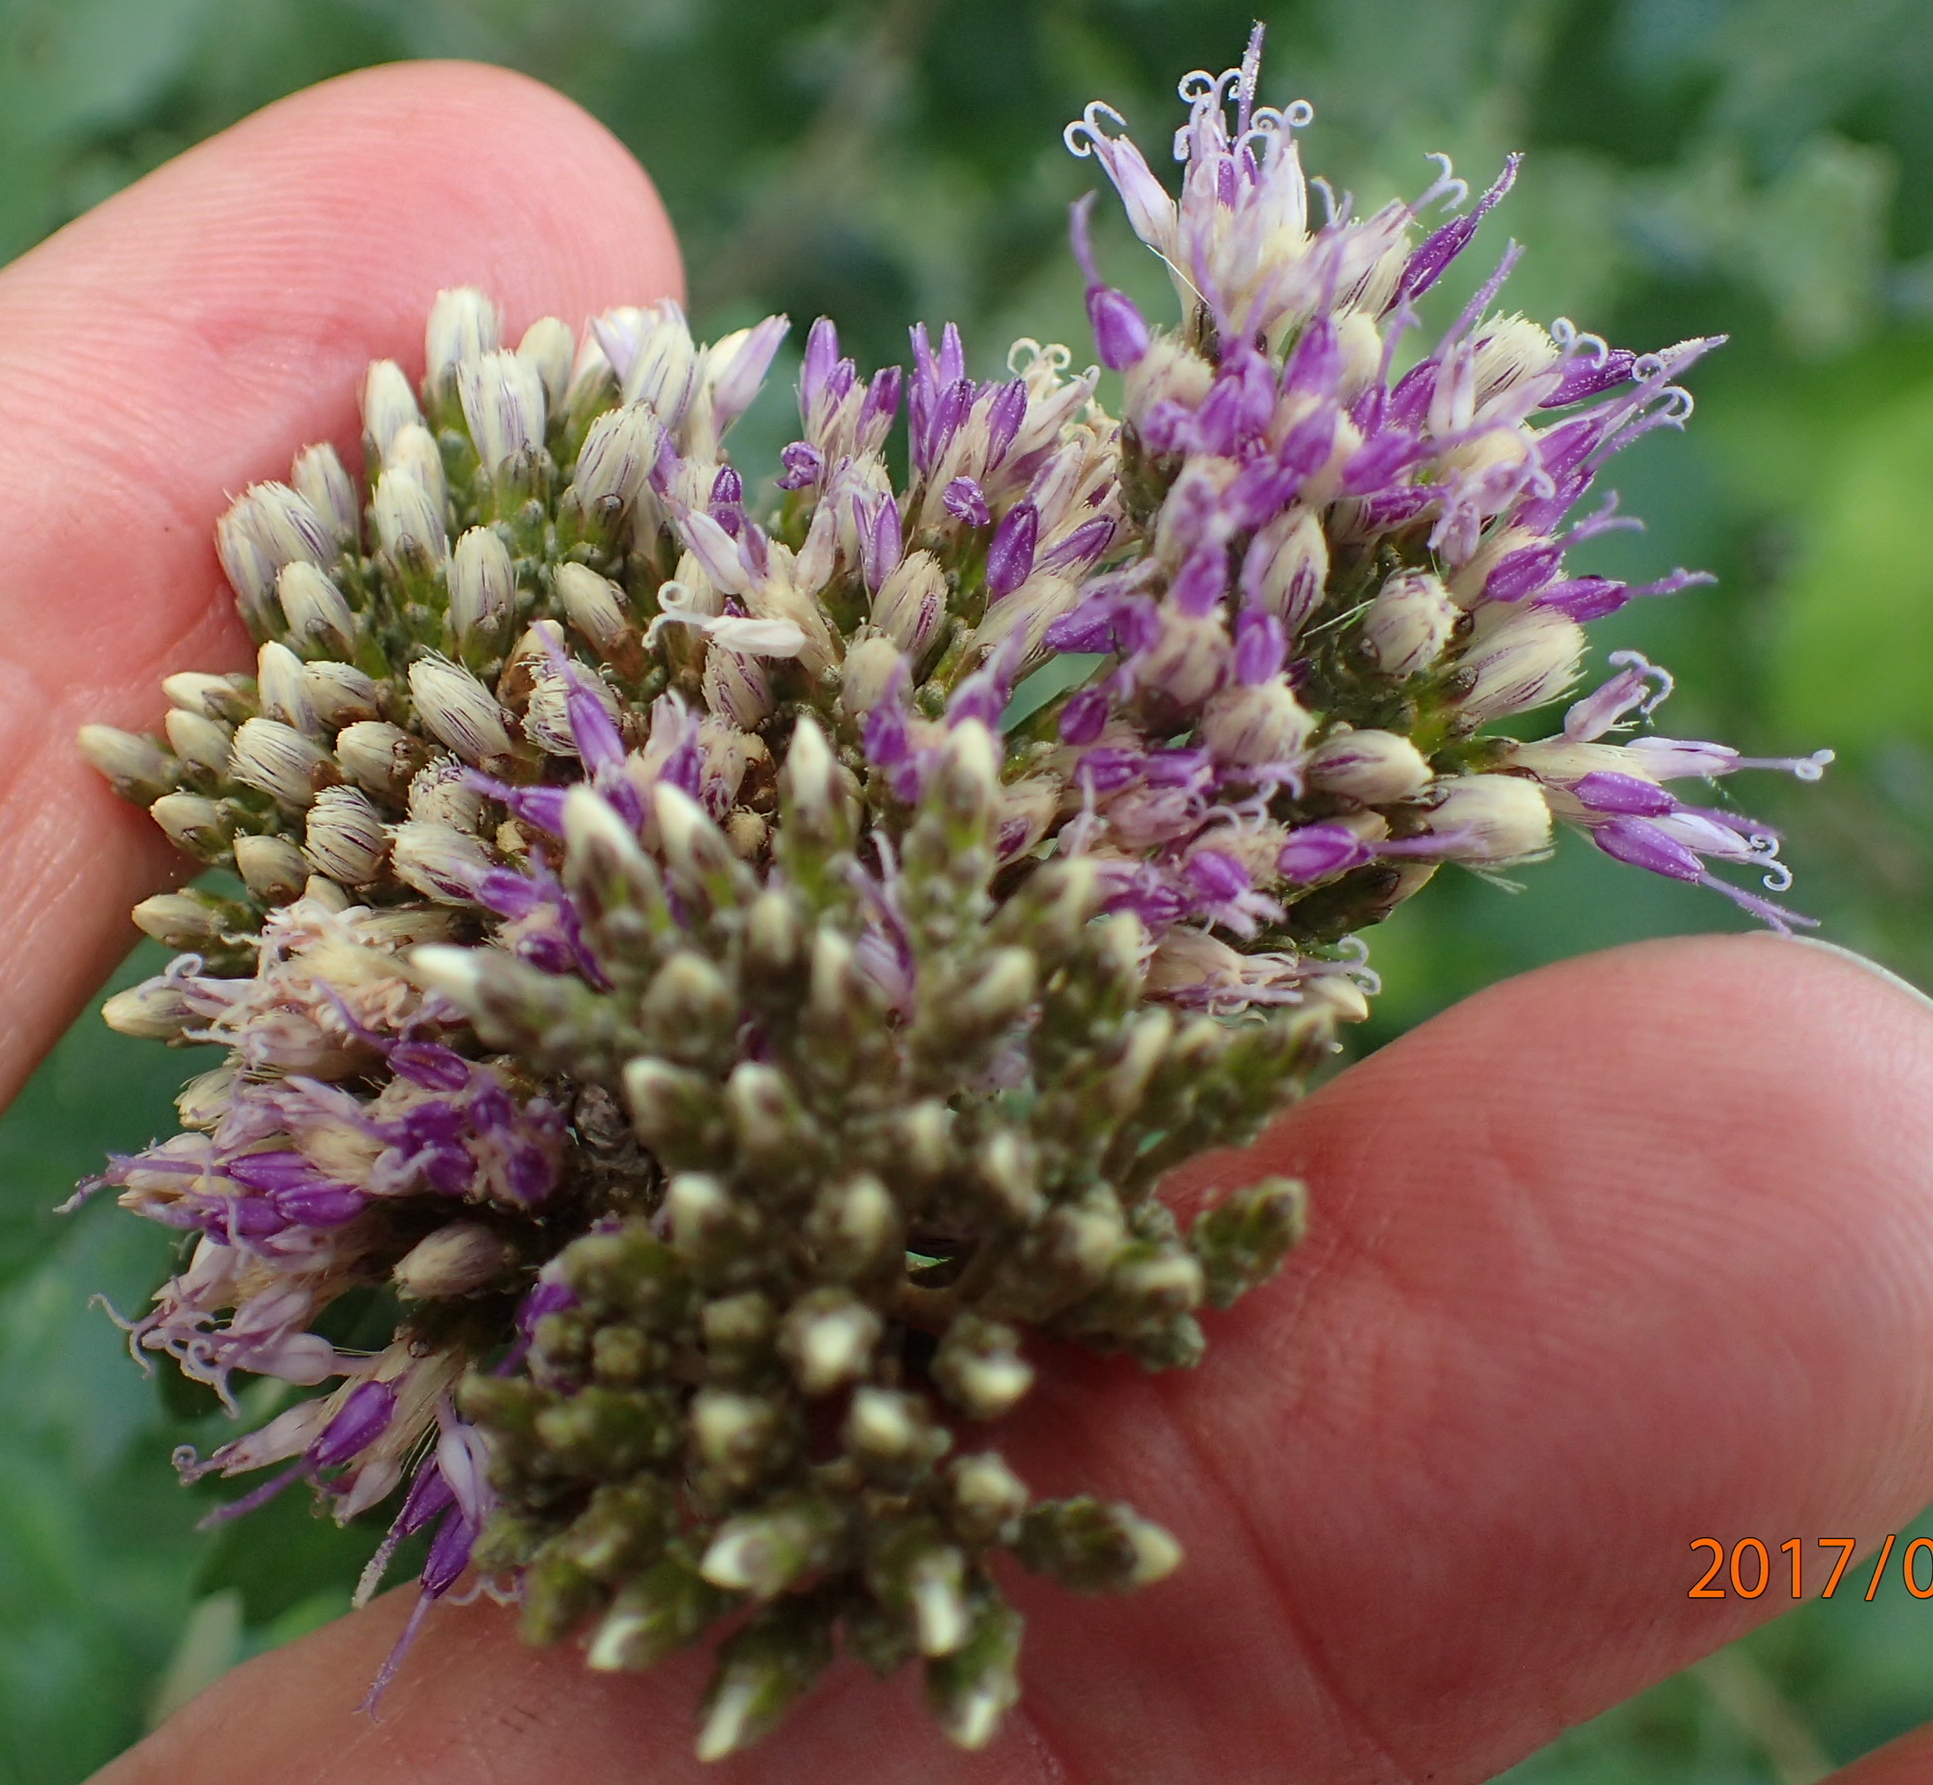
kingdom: Plantae
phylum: Tracheophyta
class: Magnoliopsida
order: Asterales
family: Asteraceae
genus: Gymnanthemum
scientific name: Gymnanthemum corymbosum
